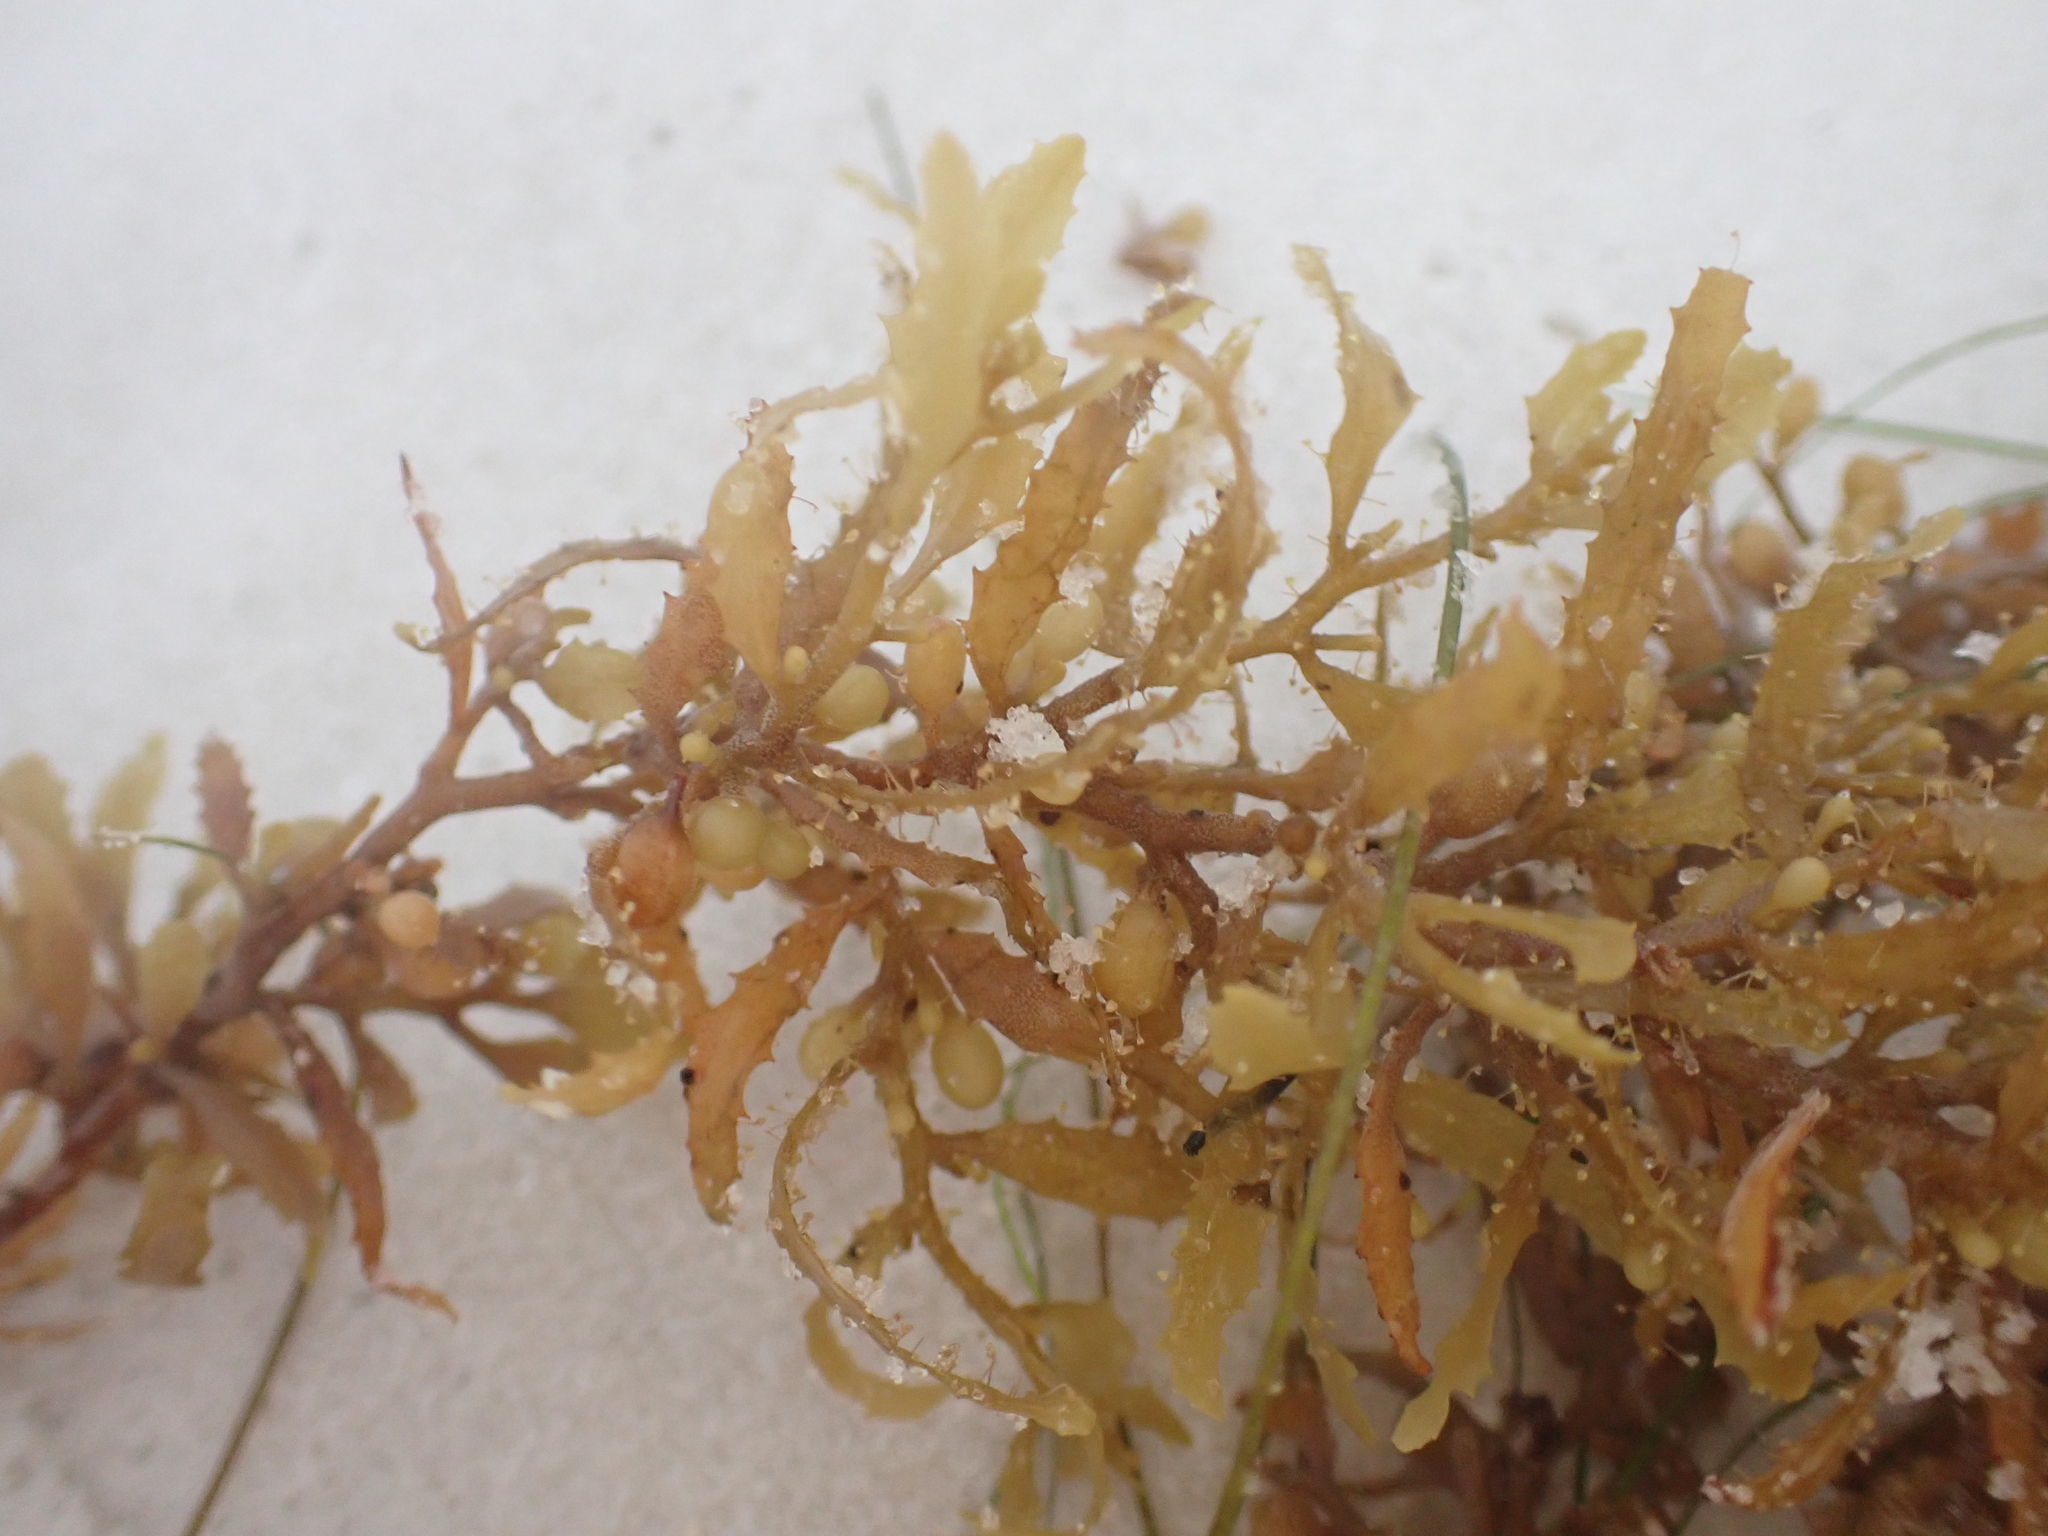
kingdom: Chromista
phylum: Ochrophyta
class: Phaeophyceae
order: Fucales
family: Sargassaceae
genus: Sargassum
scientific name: Sargassum fluitans
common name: Sargassum seaweed
